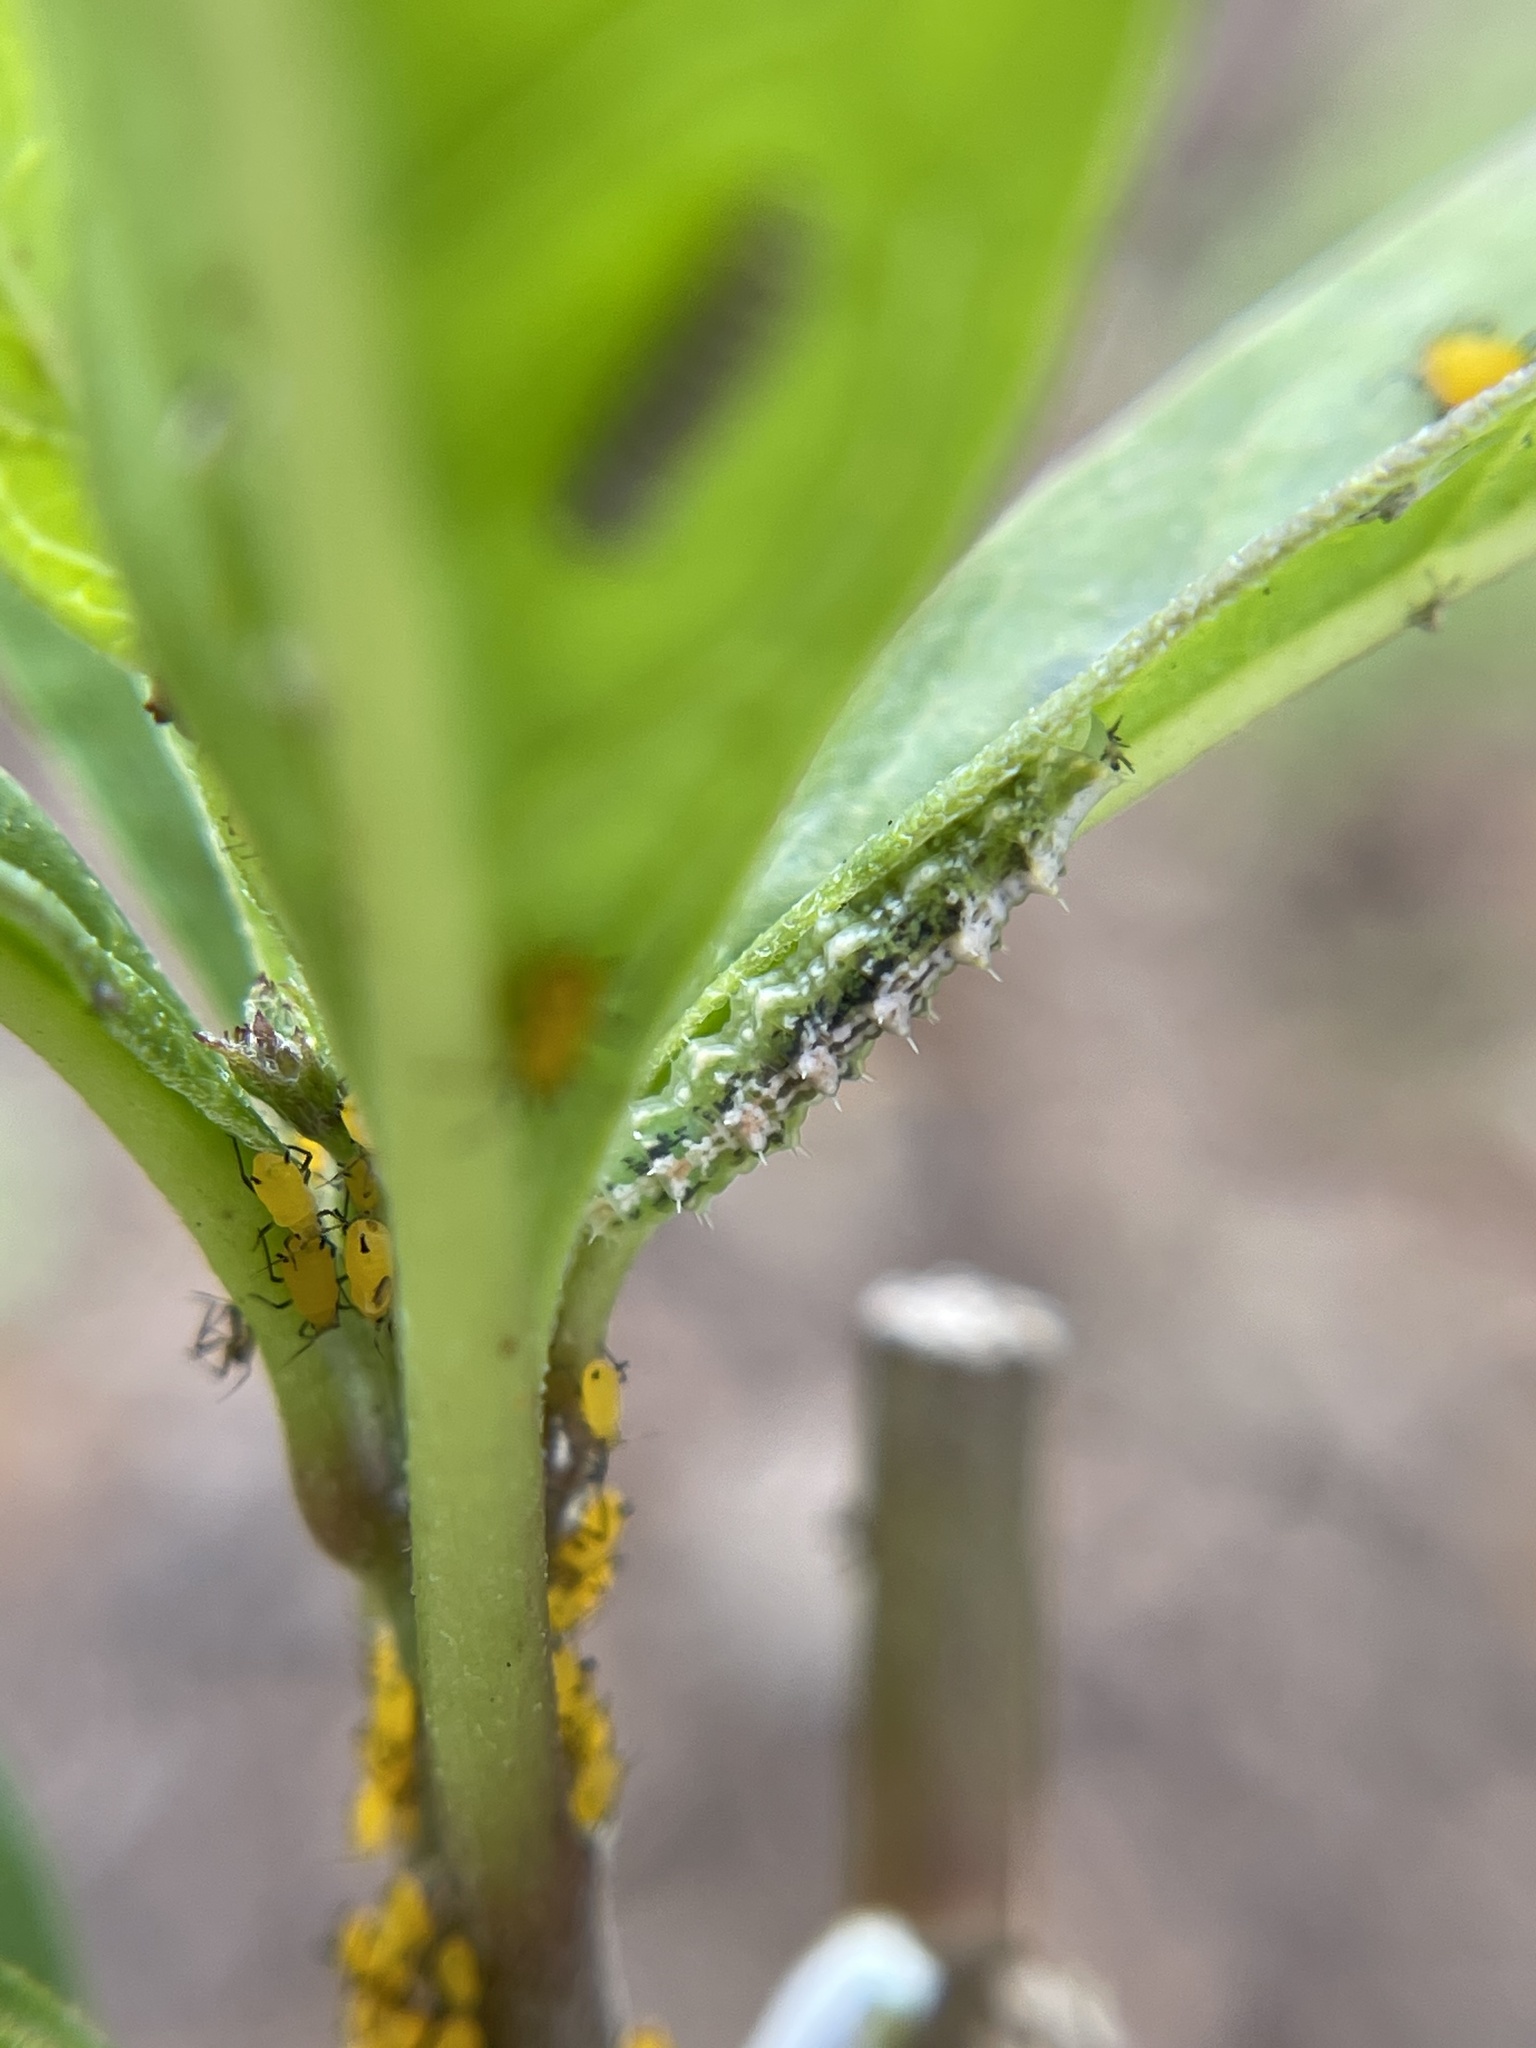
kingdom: Animalia
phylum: Arthropoda
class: Insecta
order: Hemiptera
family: Aphididae
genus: Aphis
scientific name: Aphis nerii
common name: Oleander aphid
